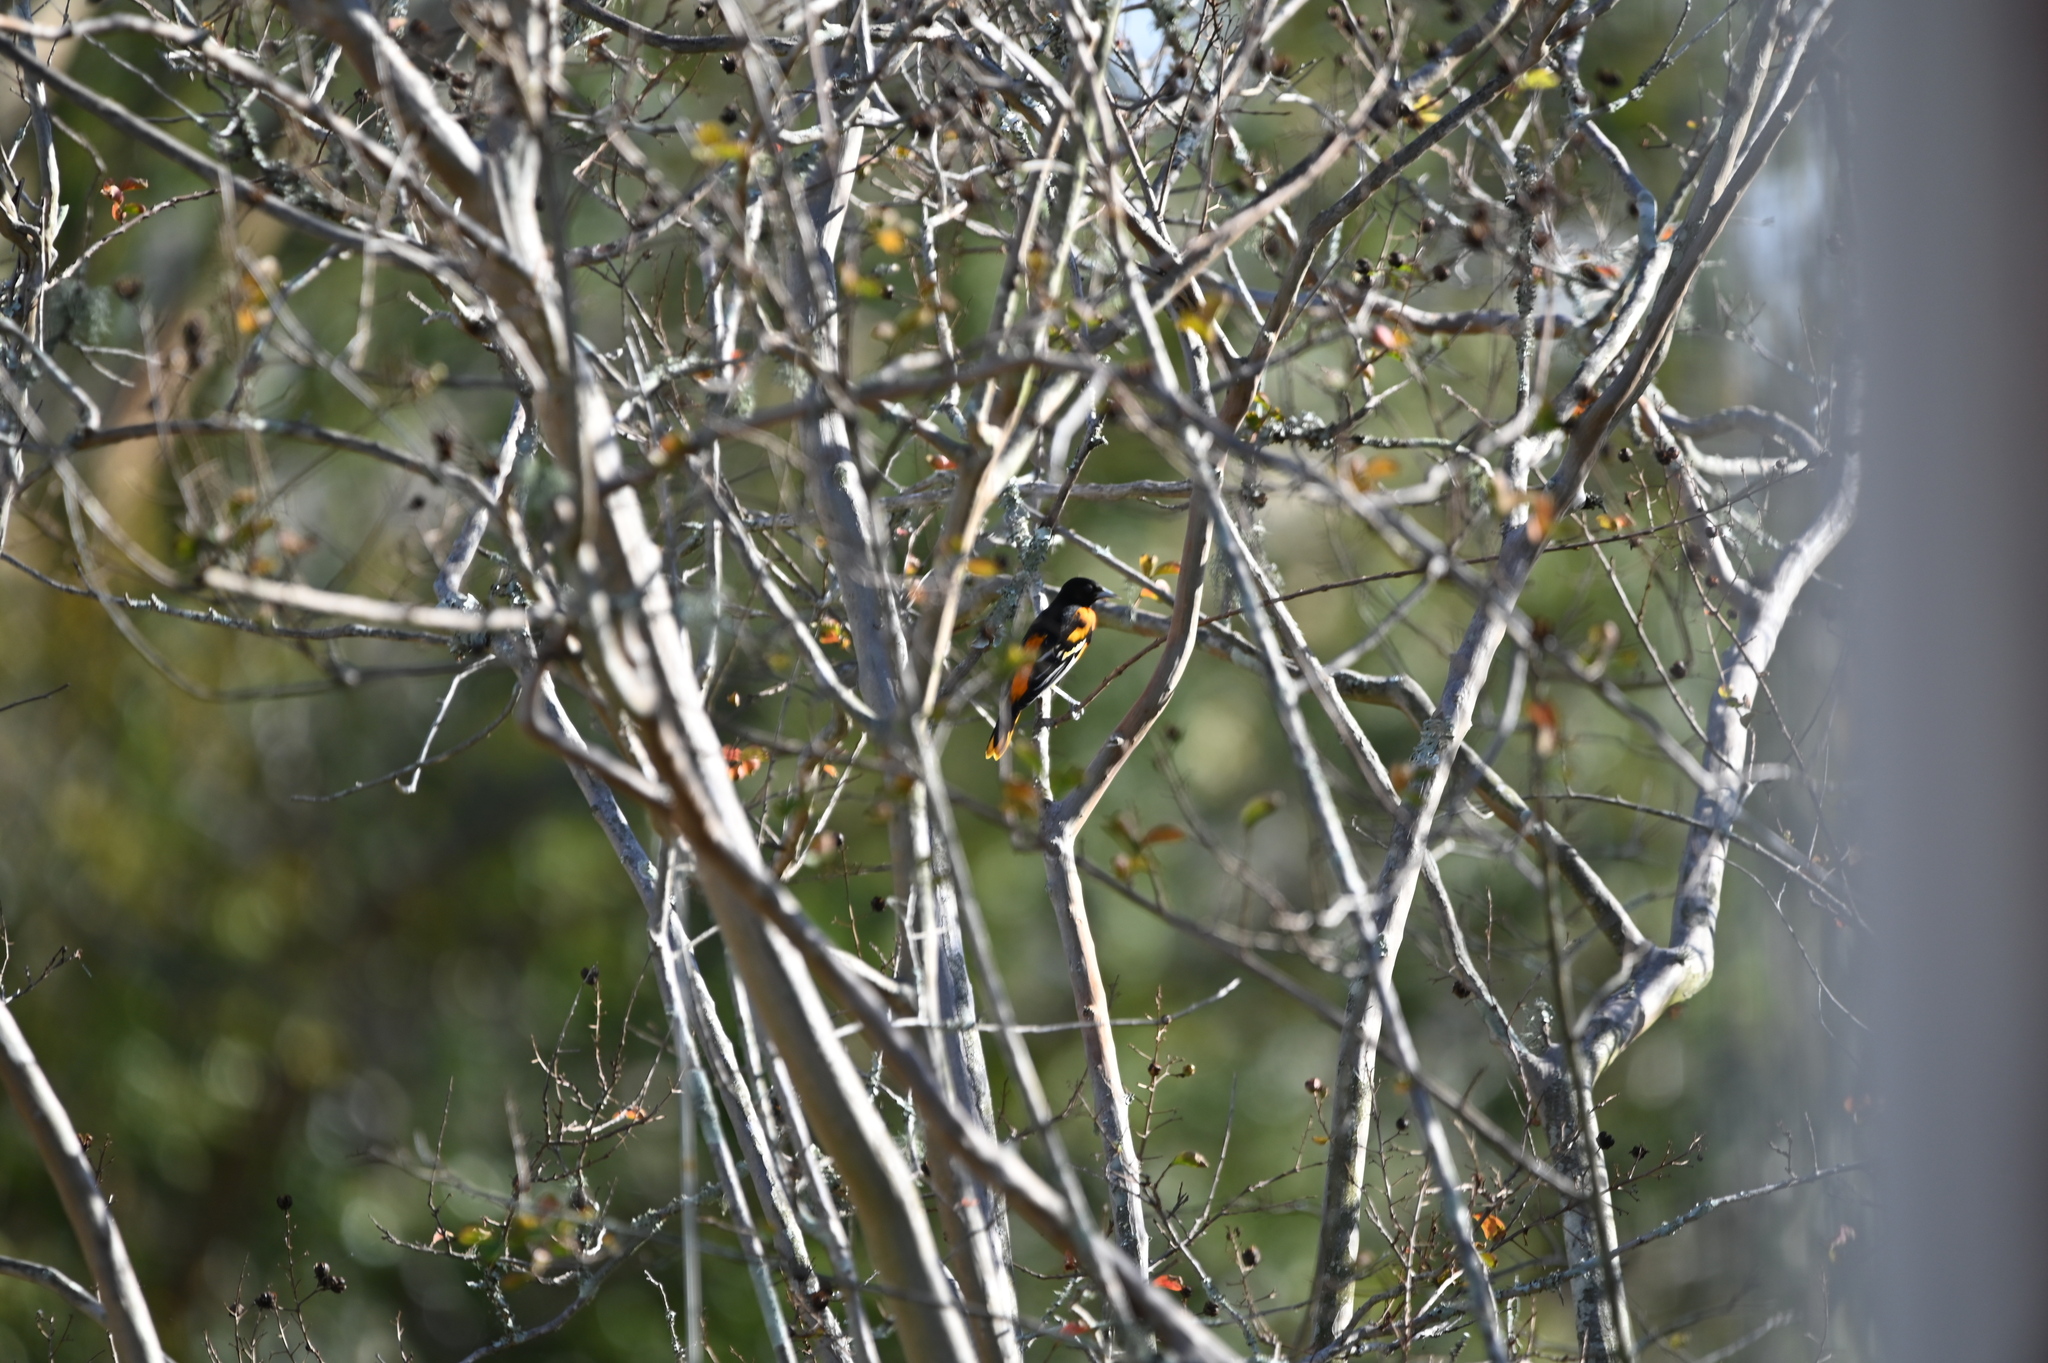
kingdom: Animalia
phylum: Chordata
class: Aves
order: Passeriformes
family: Icteridae
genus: Icterus
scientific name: Icterus galbula
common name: Baltimore oriole
